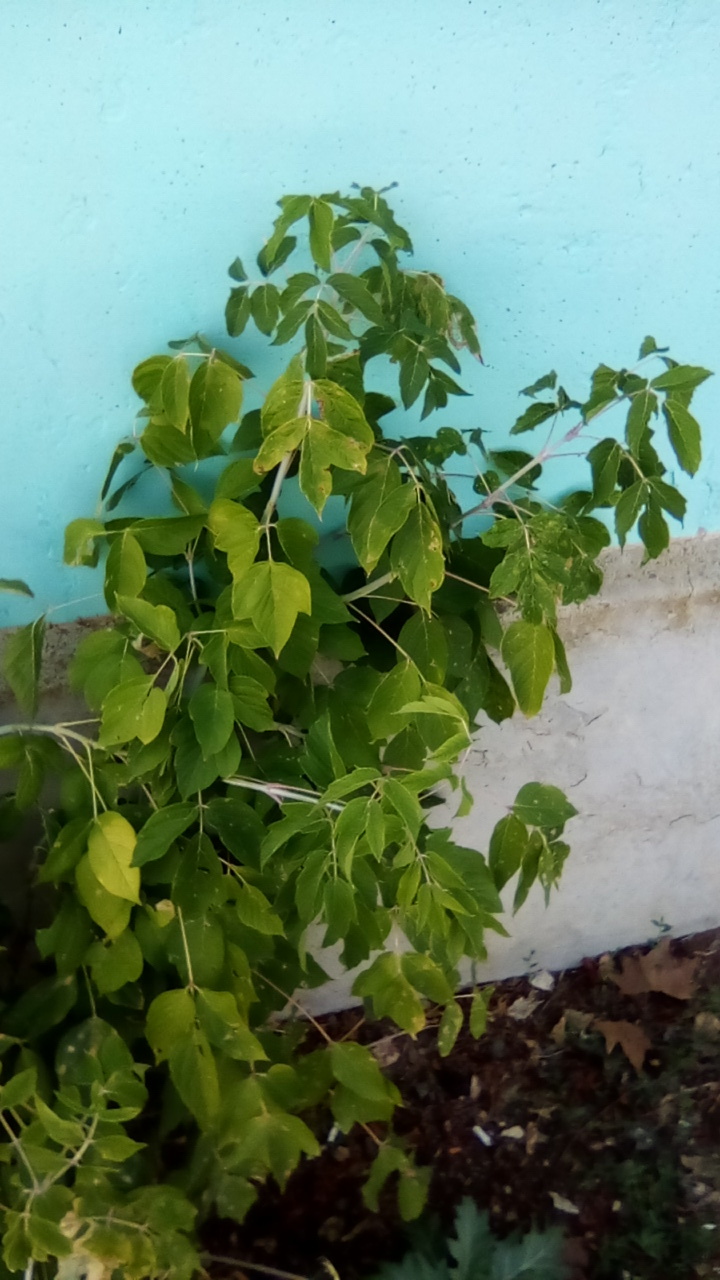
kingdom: Plantae
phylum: Tracheophyta
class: Magnoliopsida
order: Sapindales
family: Sapindaceae
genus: Acer
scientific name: Acer negundo
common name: Ashleaf maple
